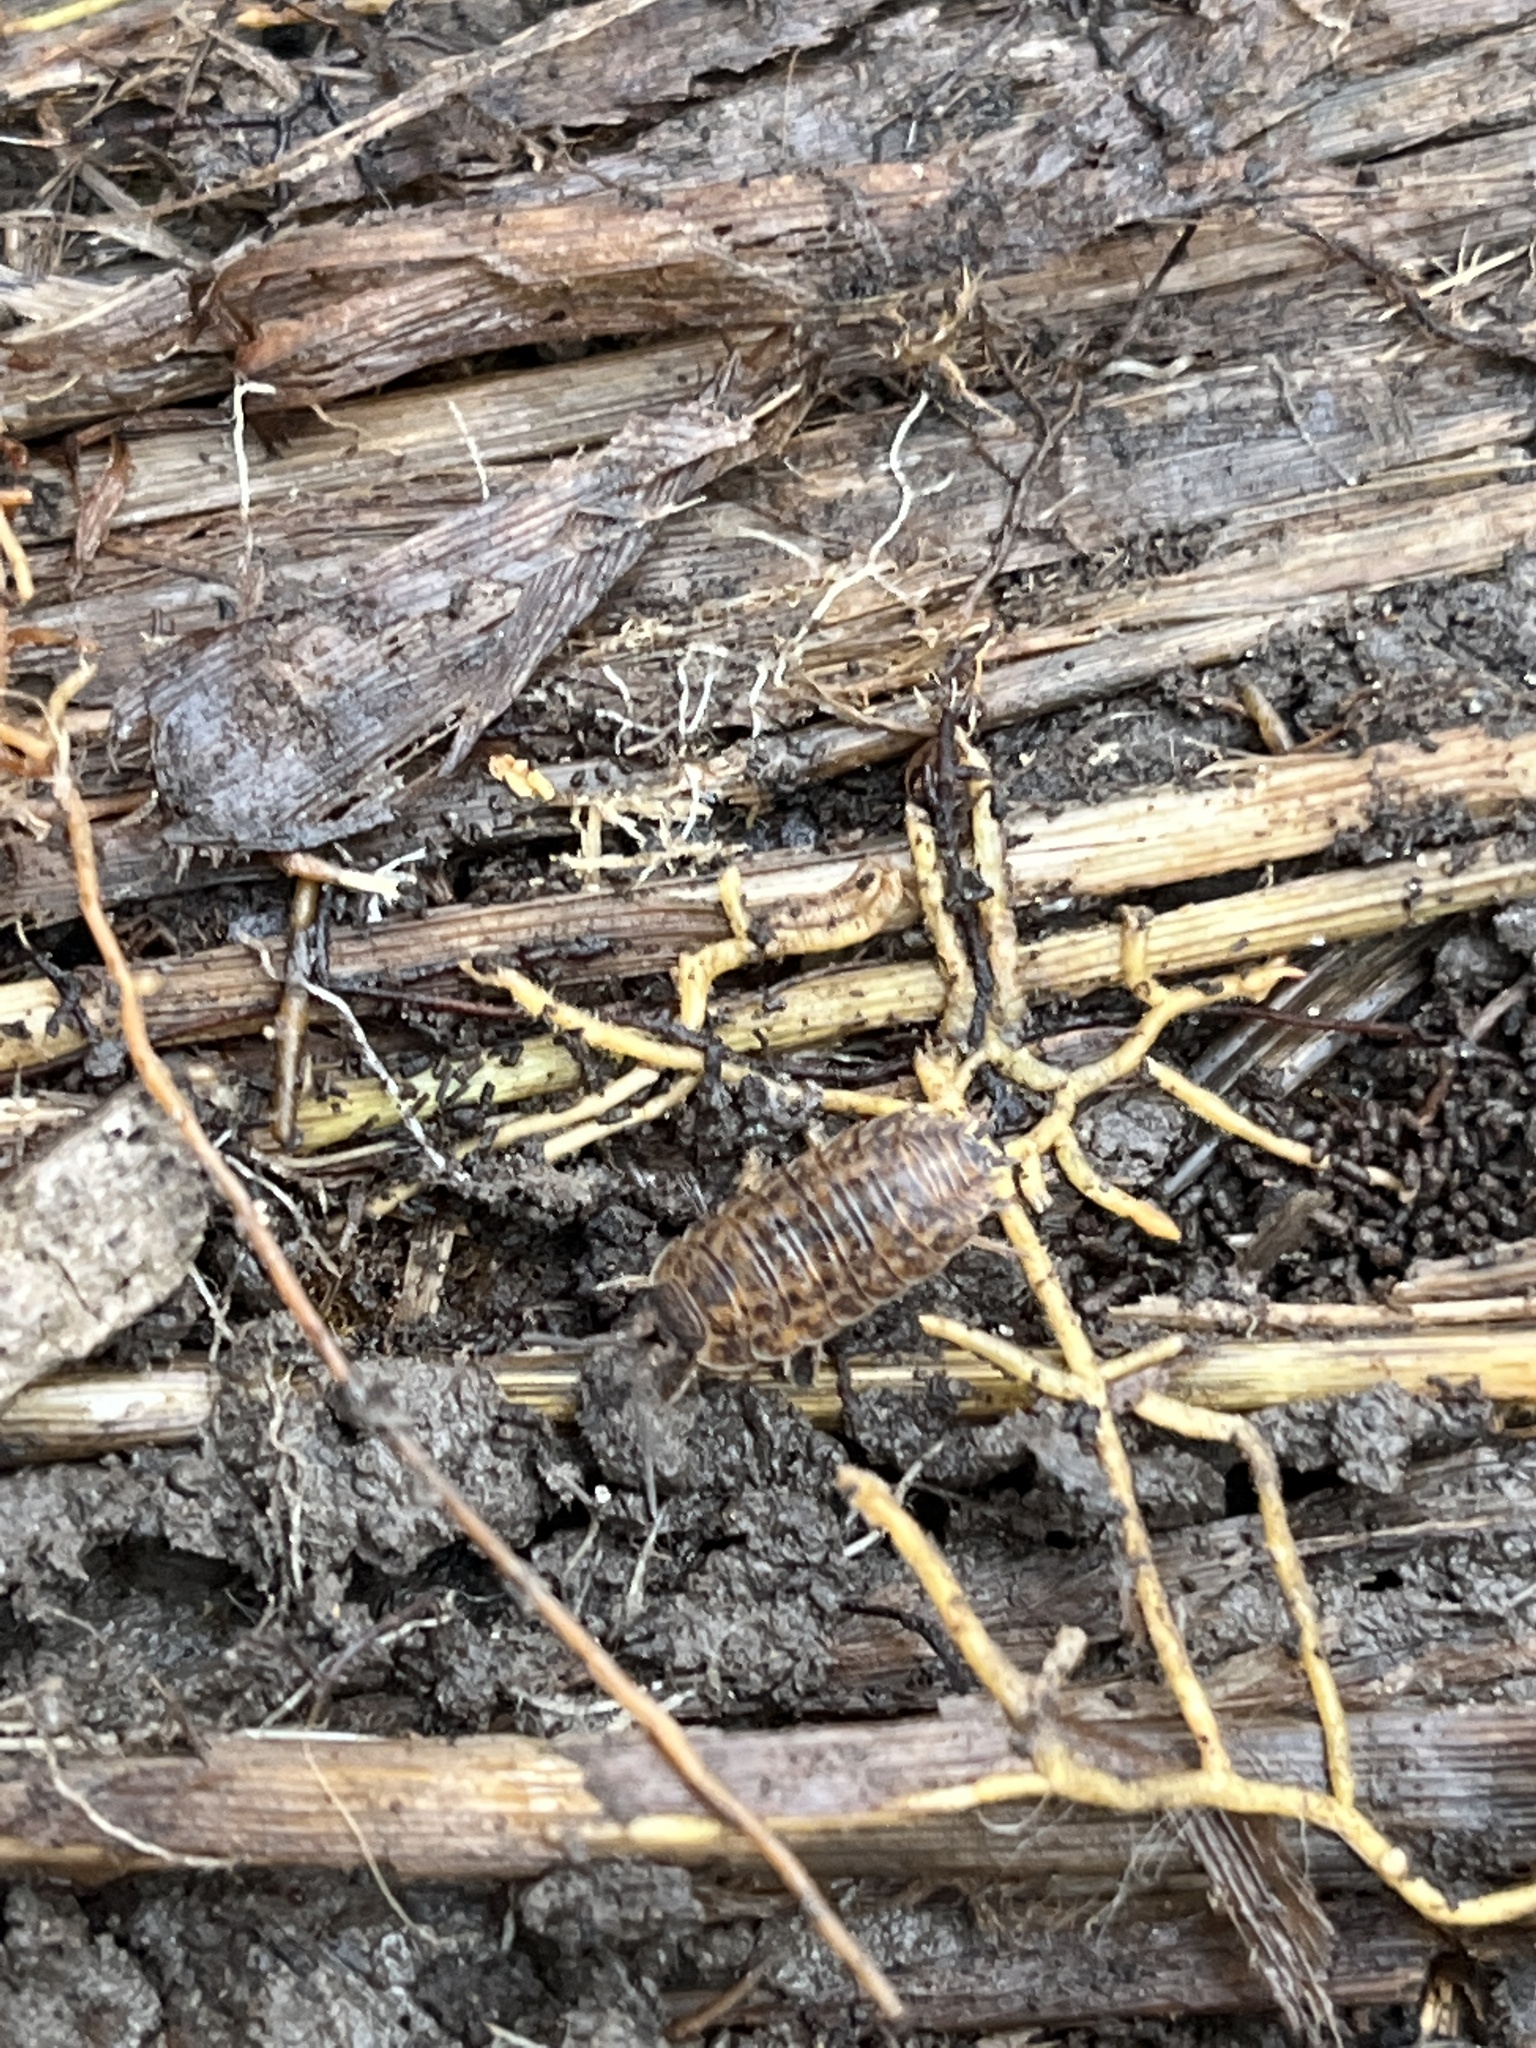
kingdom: Animalia
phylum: Arthropoda
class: Malacostraca
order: Isopoda
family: Trachelipodidae
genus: Trachelipus
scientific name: Trachelipus rathkii
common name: Isopod
